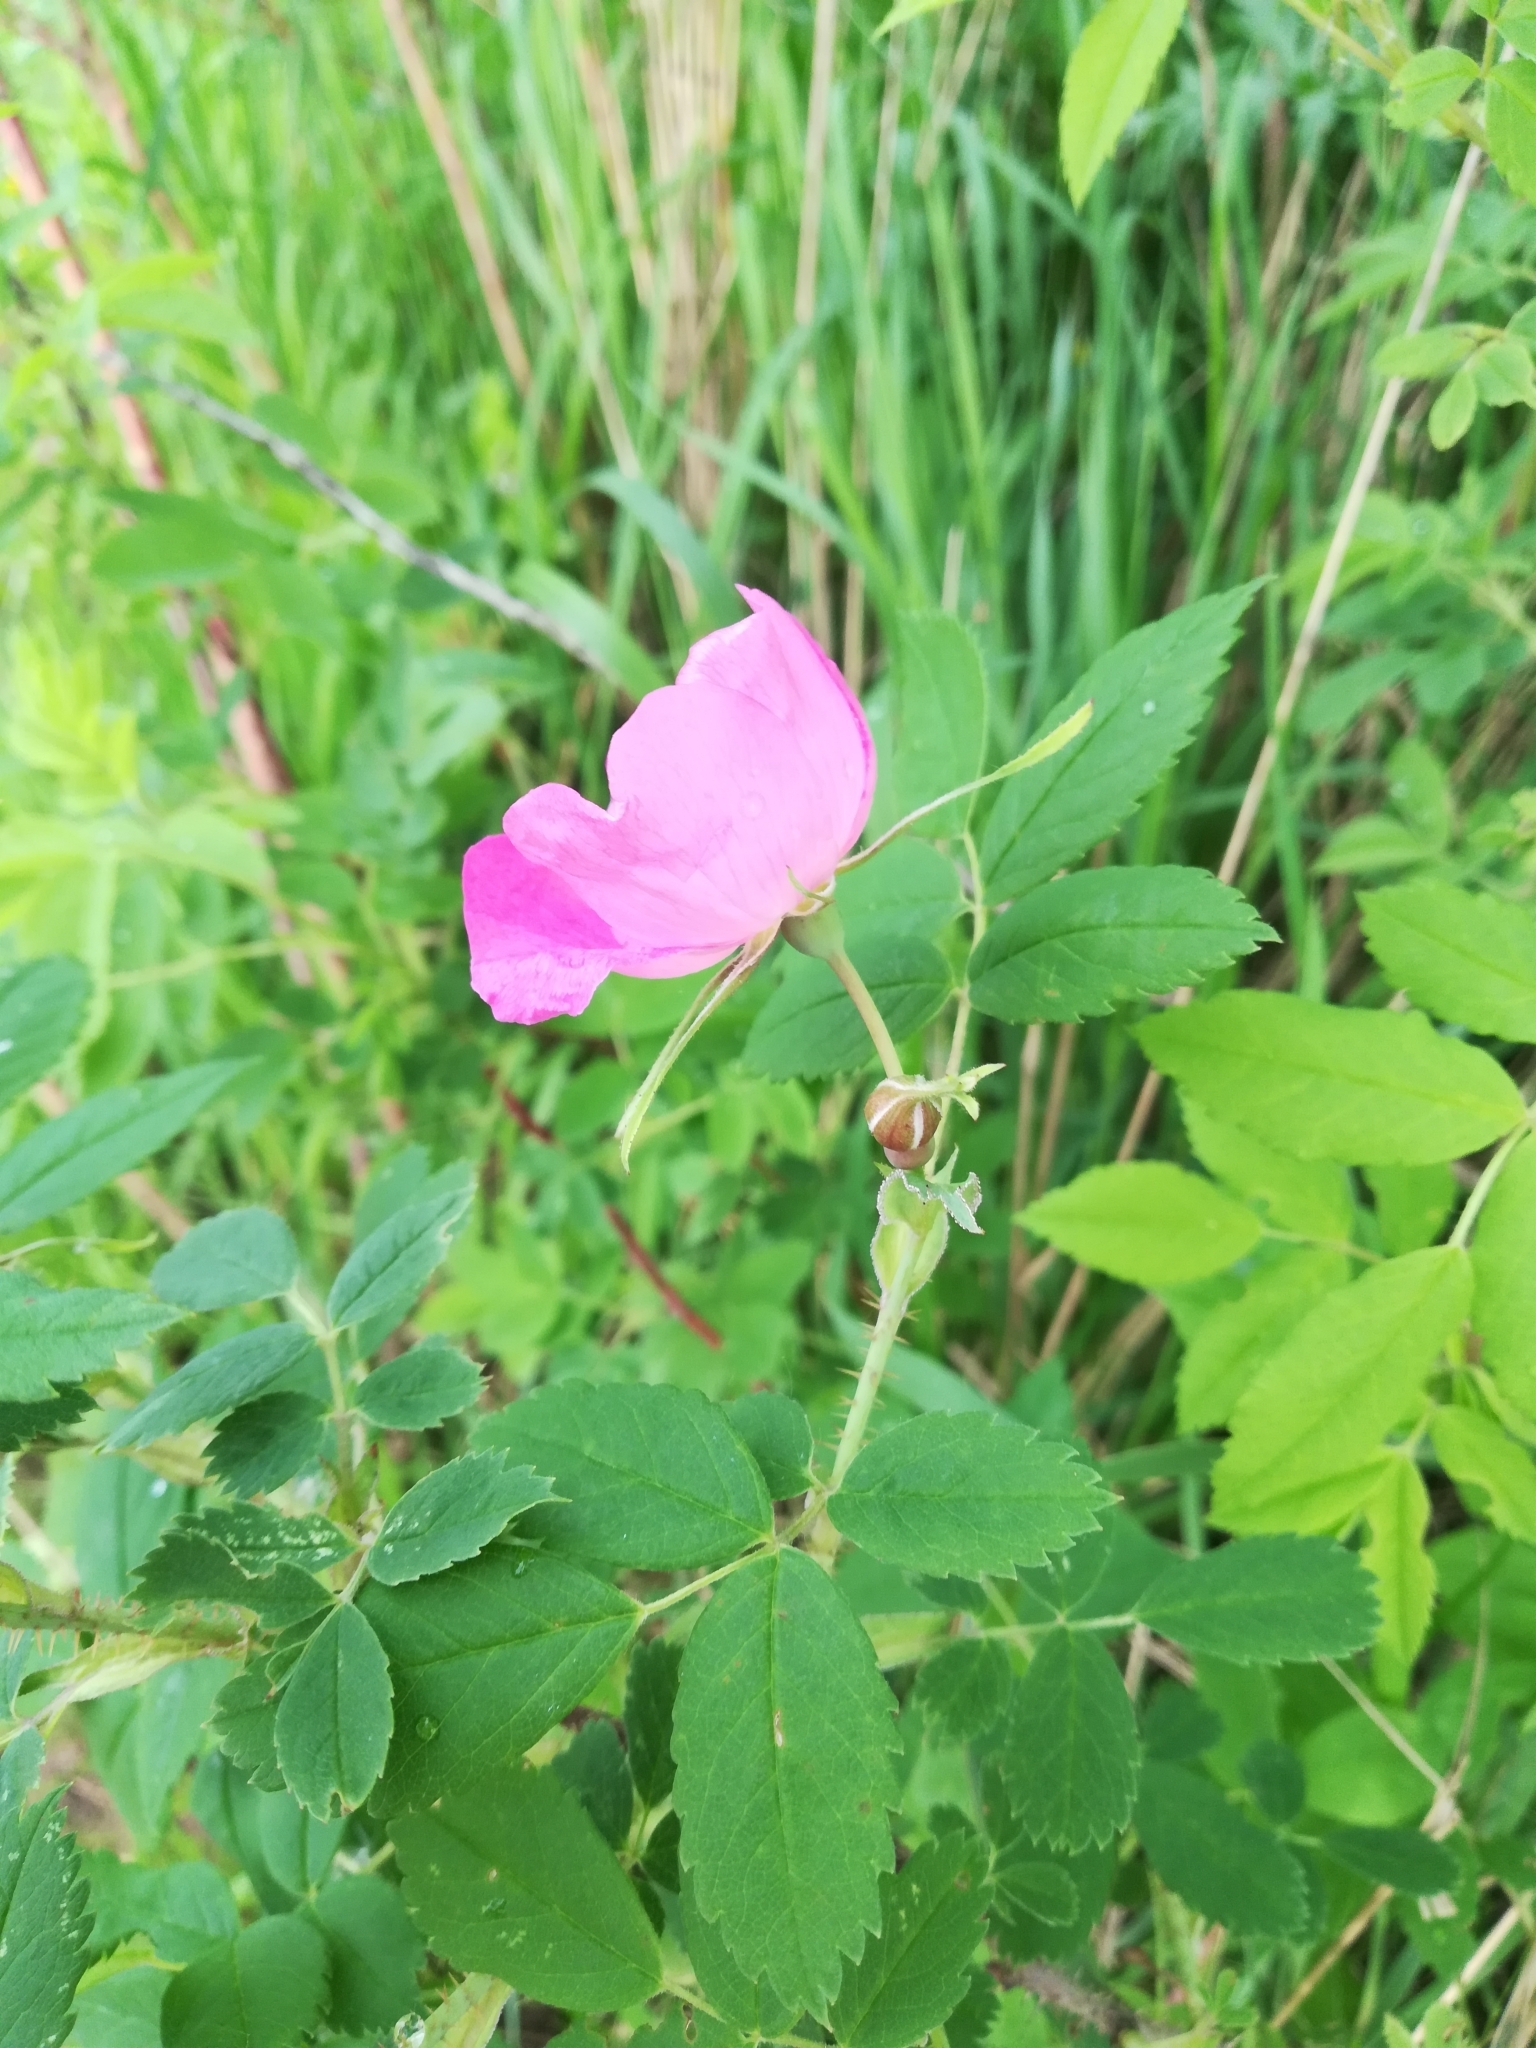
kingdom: Plantae
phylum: Tracheophyta
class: Magnoliopsida
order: Rosales
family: Rosaceae
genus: Rosa
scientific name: Rosa acicularis
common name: Prickly rose
